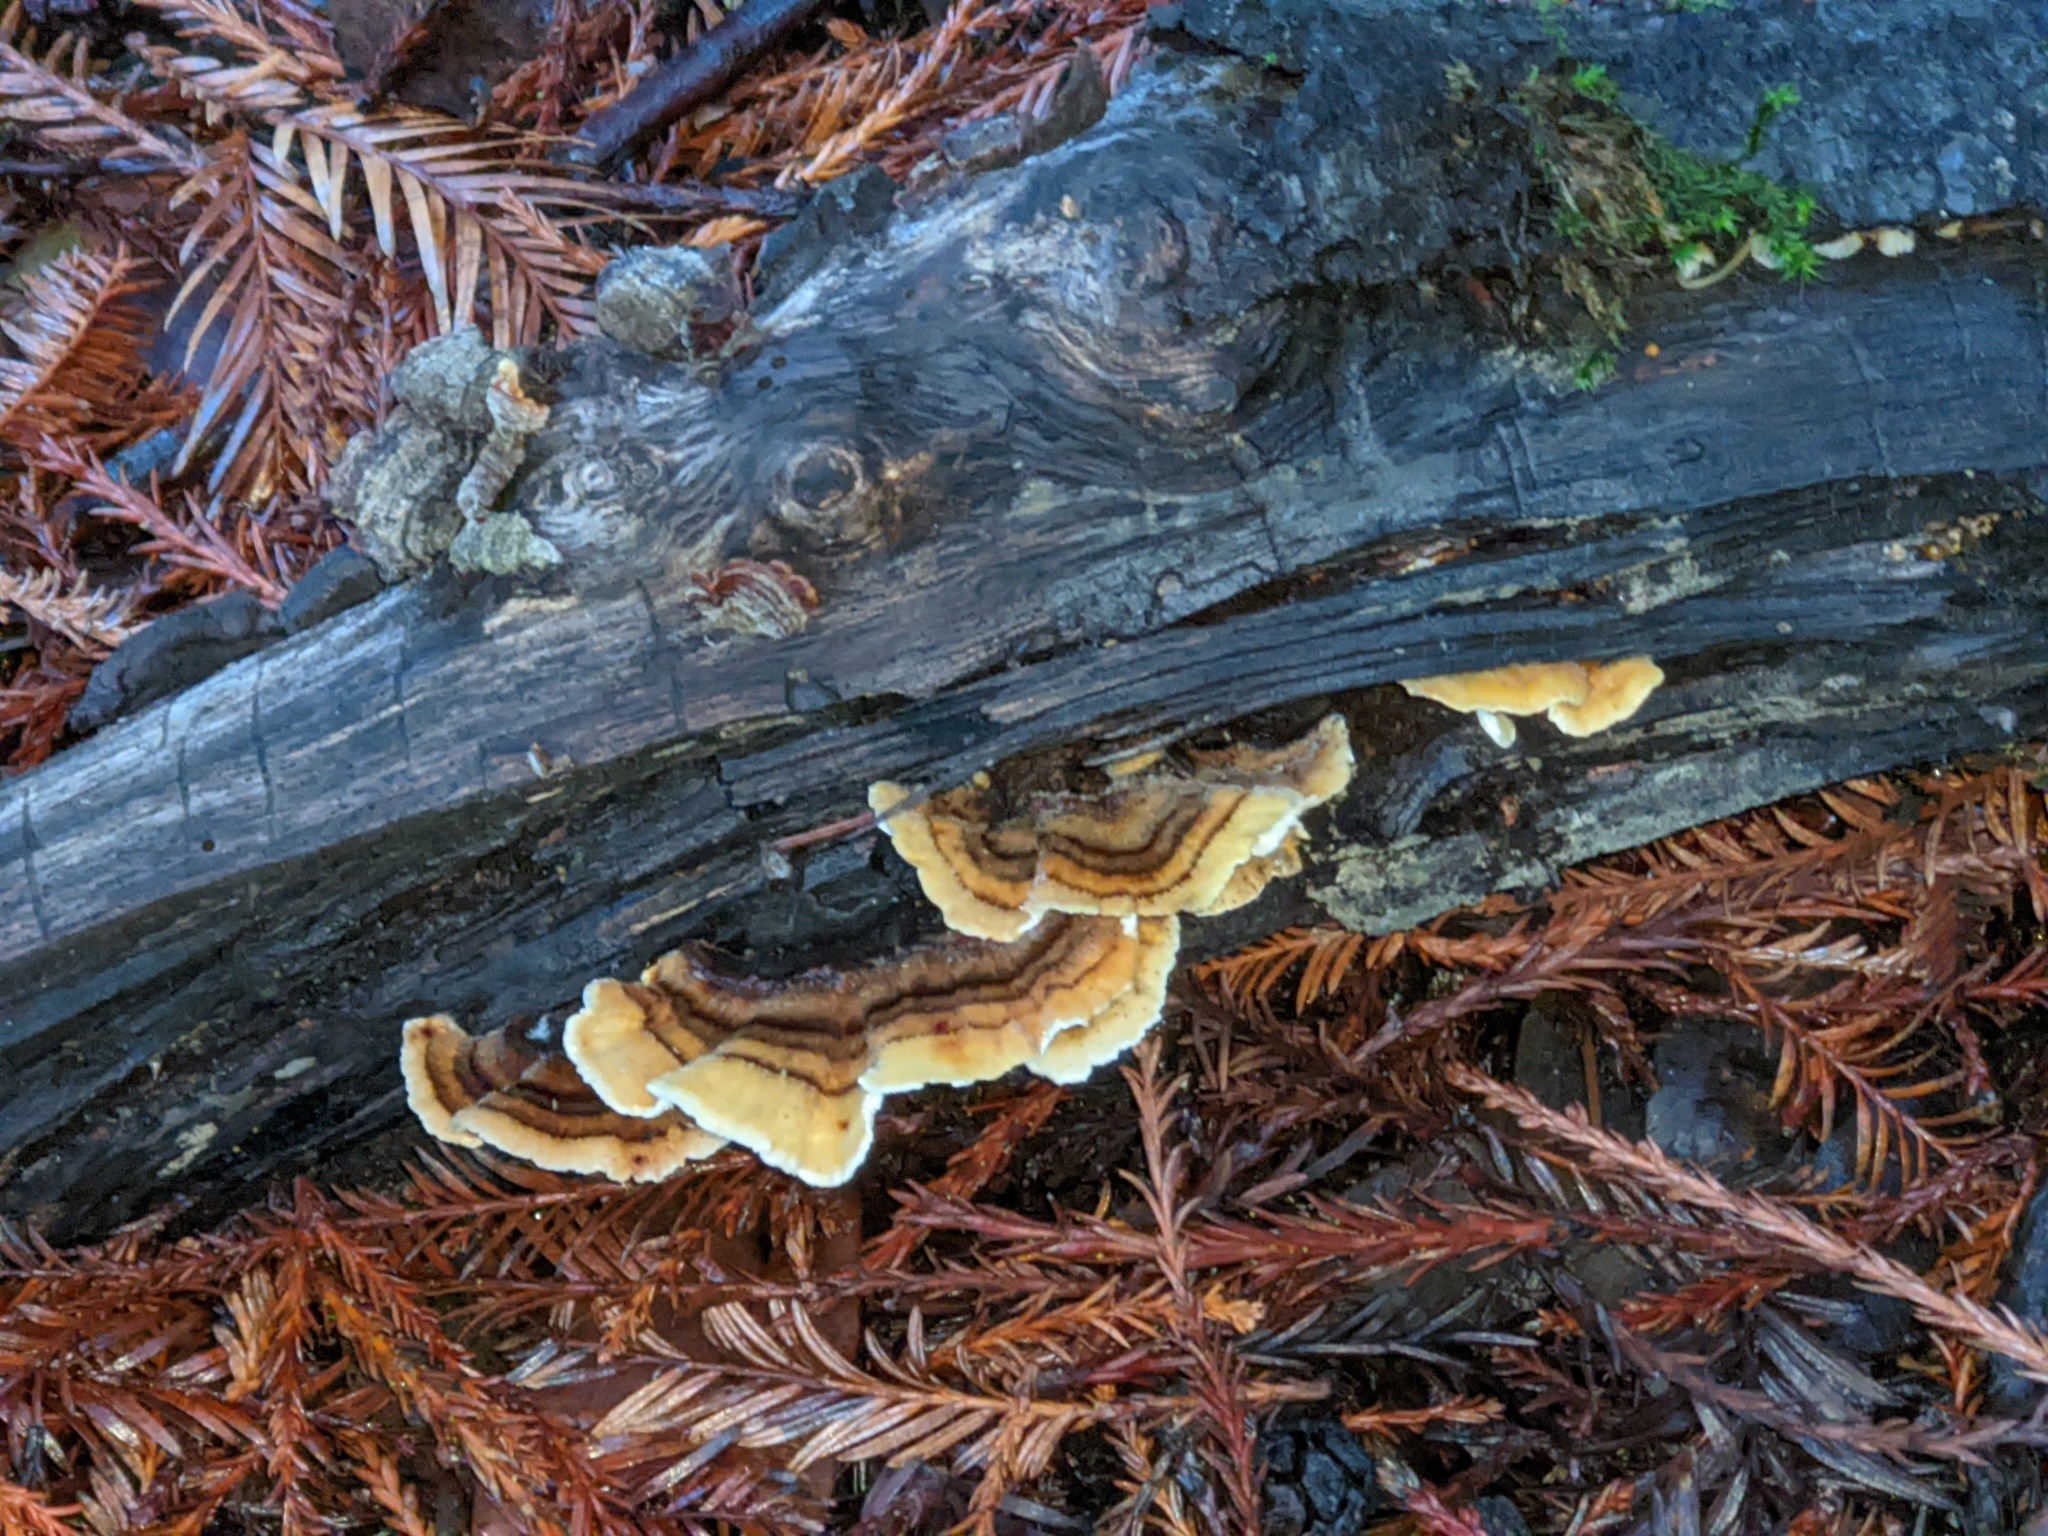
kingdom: Fungi
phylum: Basidiomycota
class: Agaricomycetes
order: Polyporales
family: Polyporaceae
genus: Trametes
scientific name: Trametes versicolor
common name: Turkeytail
